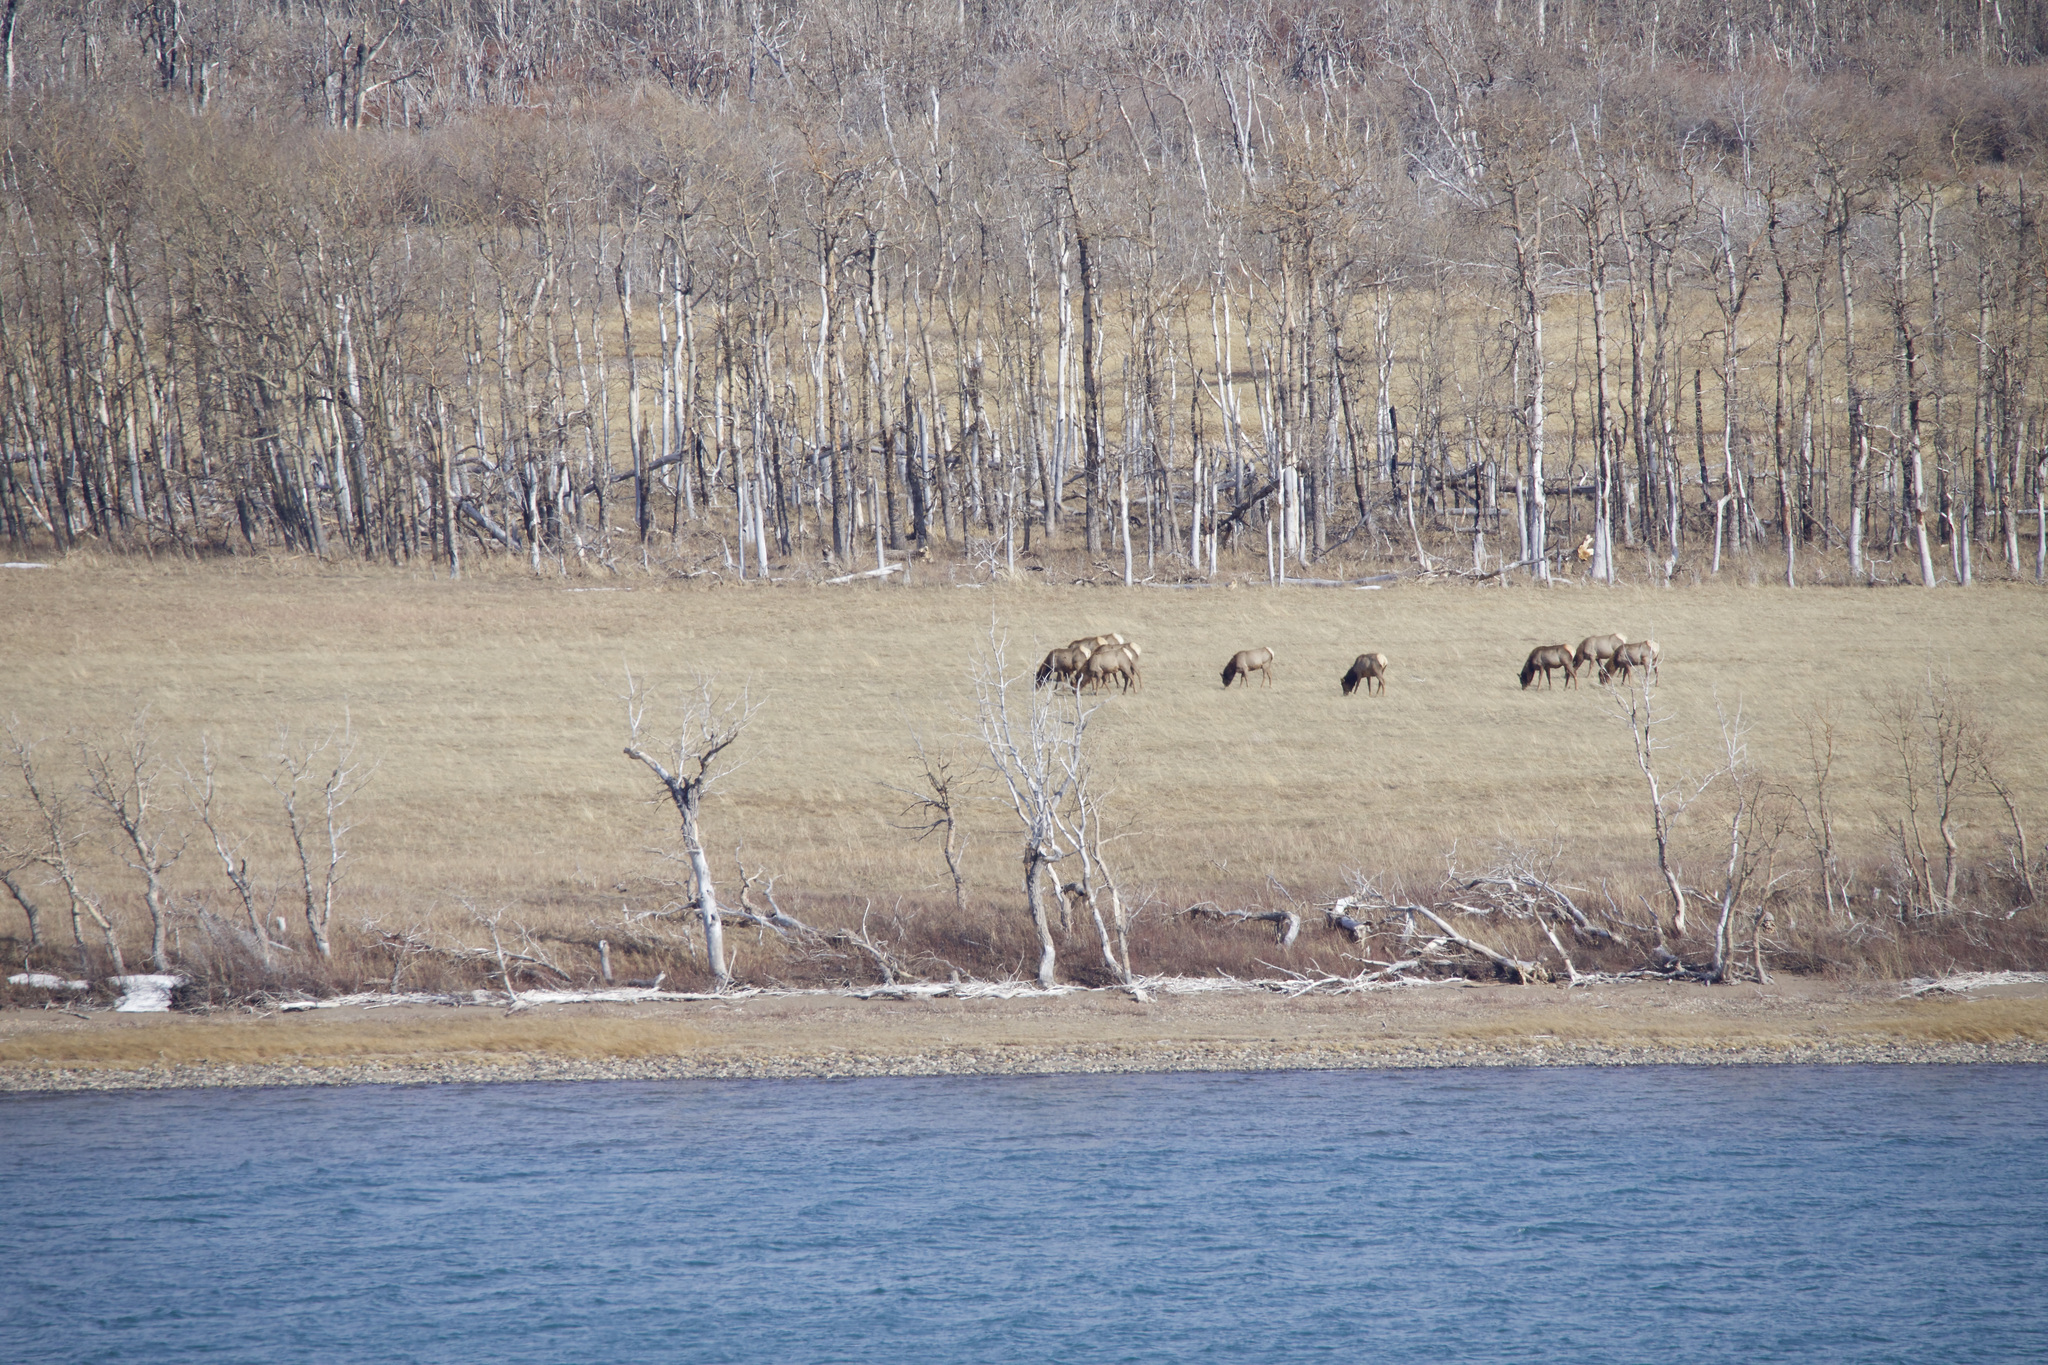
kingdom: Animalia
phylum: Chordata
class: Mammalia
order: Artiodactyla
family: Cervidae
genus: Cervus
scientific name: Cervus elaphus
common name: Red deer
